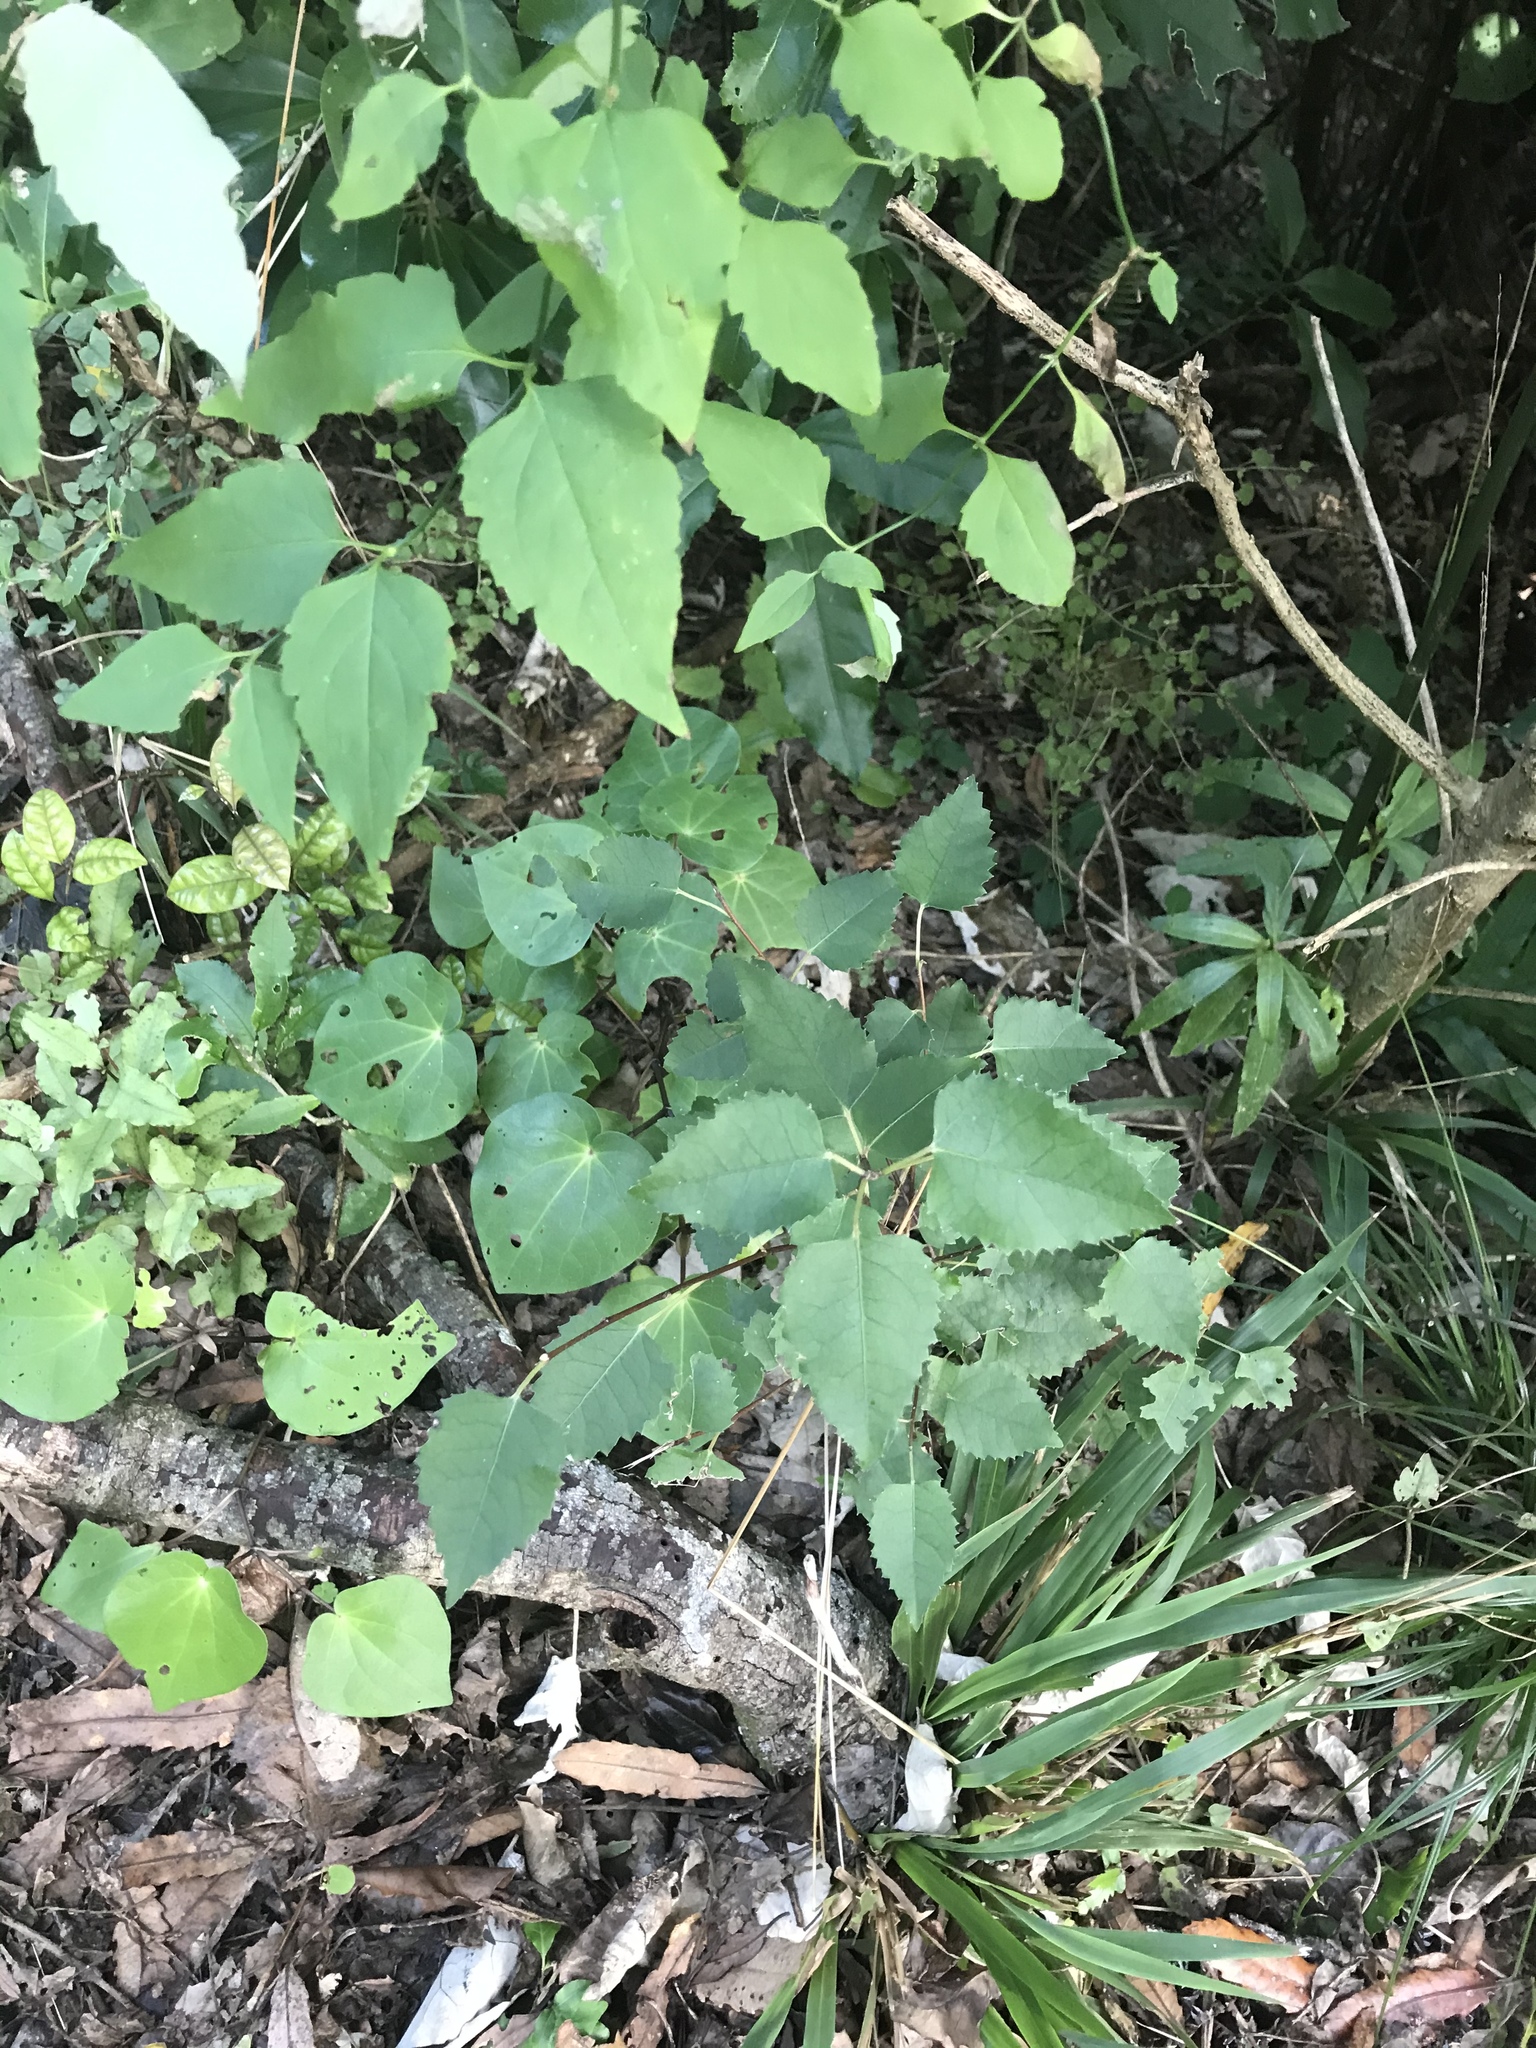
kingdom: Plantae
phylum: Tracheophyta
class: Magnoliopsida
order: Malvales
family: Malvaceae
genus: Hoheria
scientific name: Hoheria populnea
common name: Lacebark
